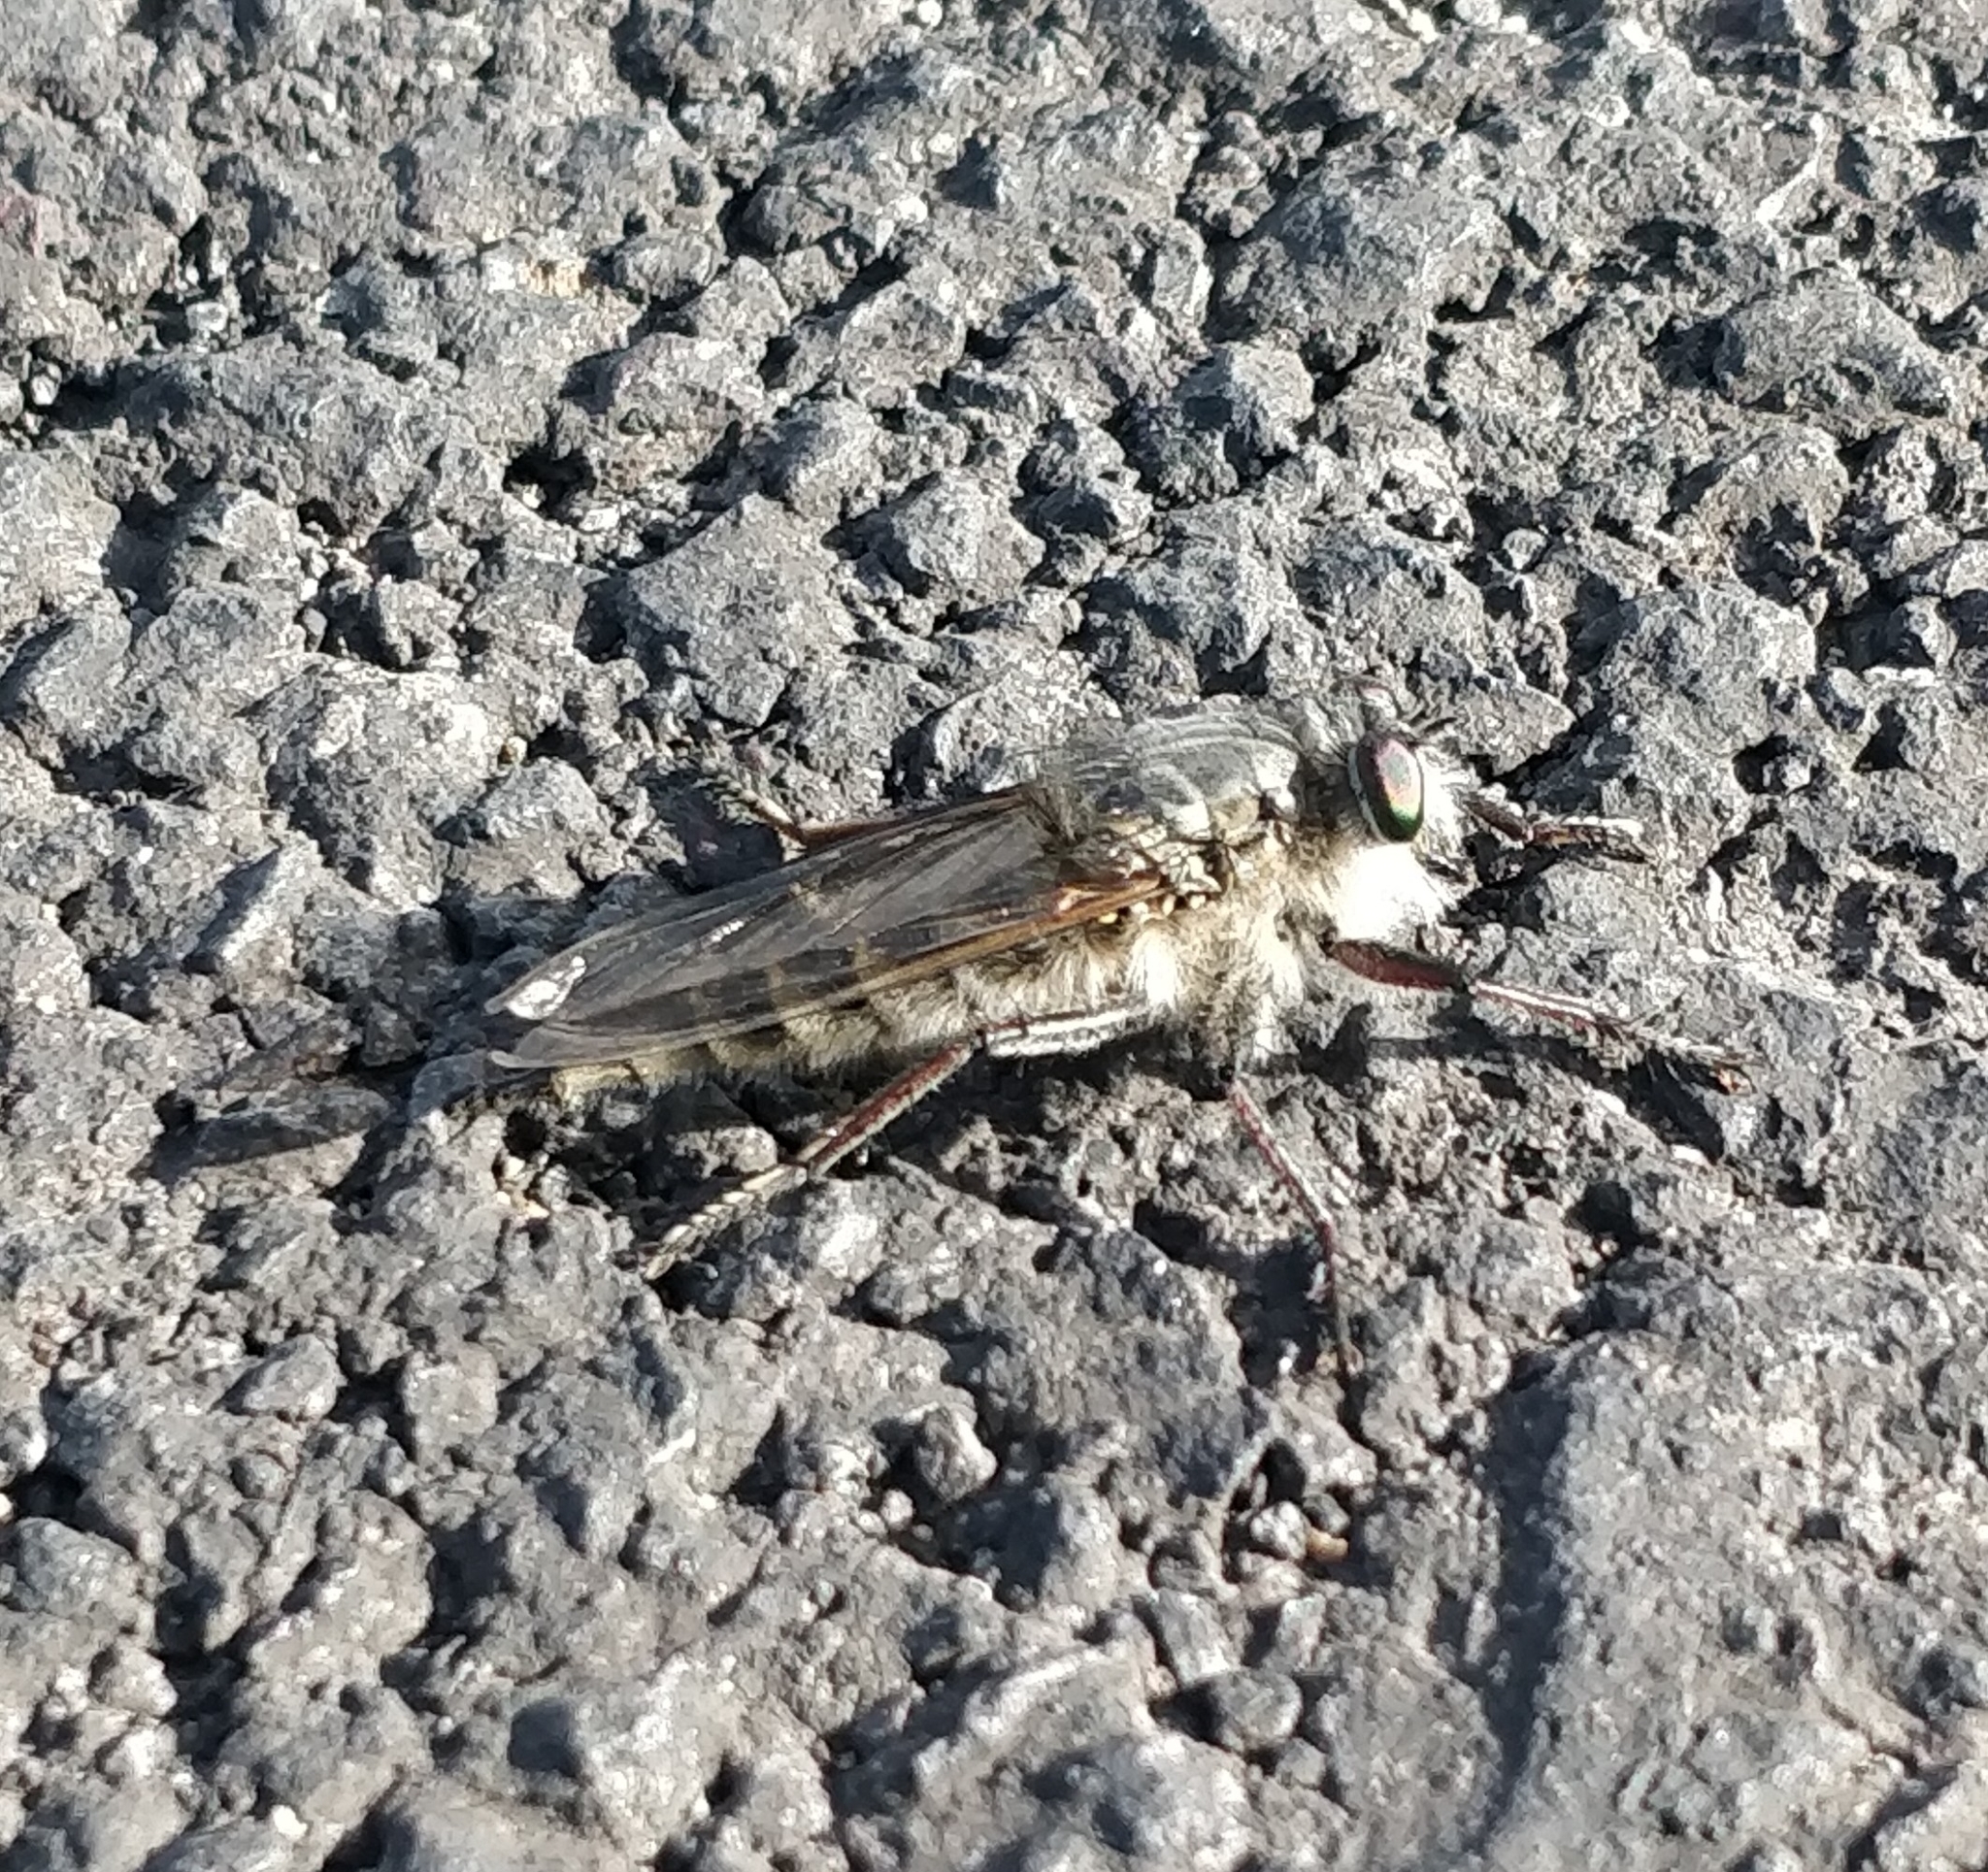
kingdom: Animalia
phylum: Arthropoda
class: Insecta
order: Diptera
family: Asilidae
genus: Promachus
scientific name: Promachus vexator
